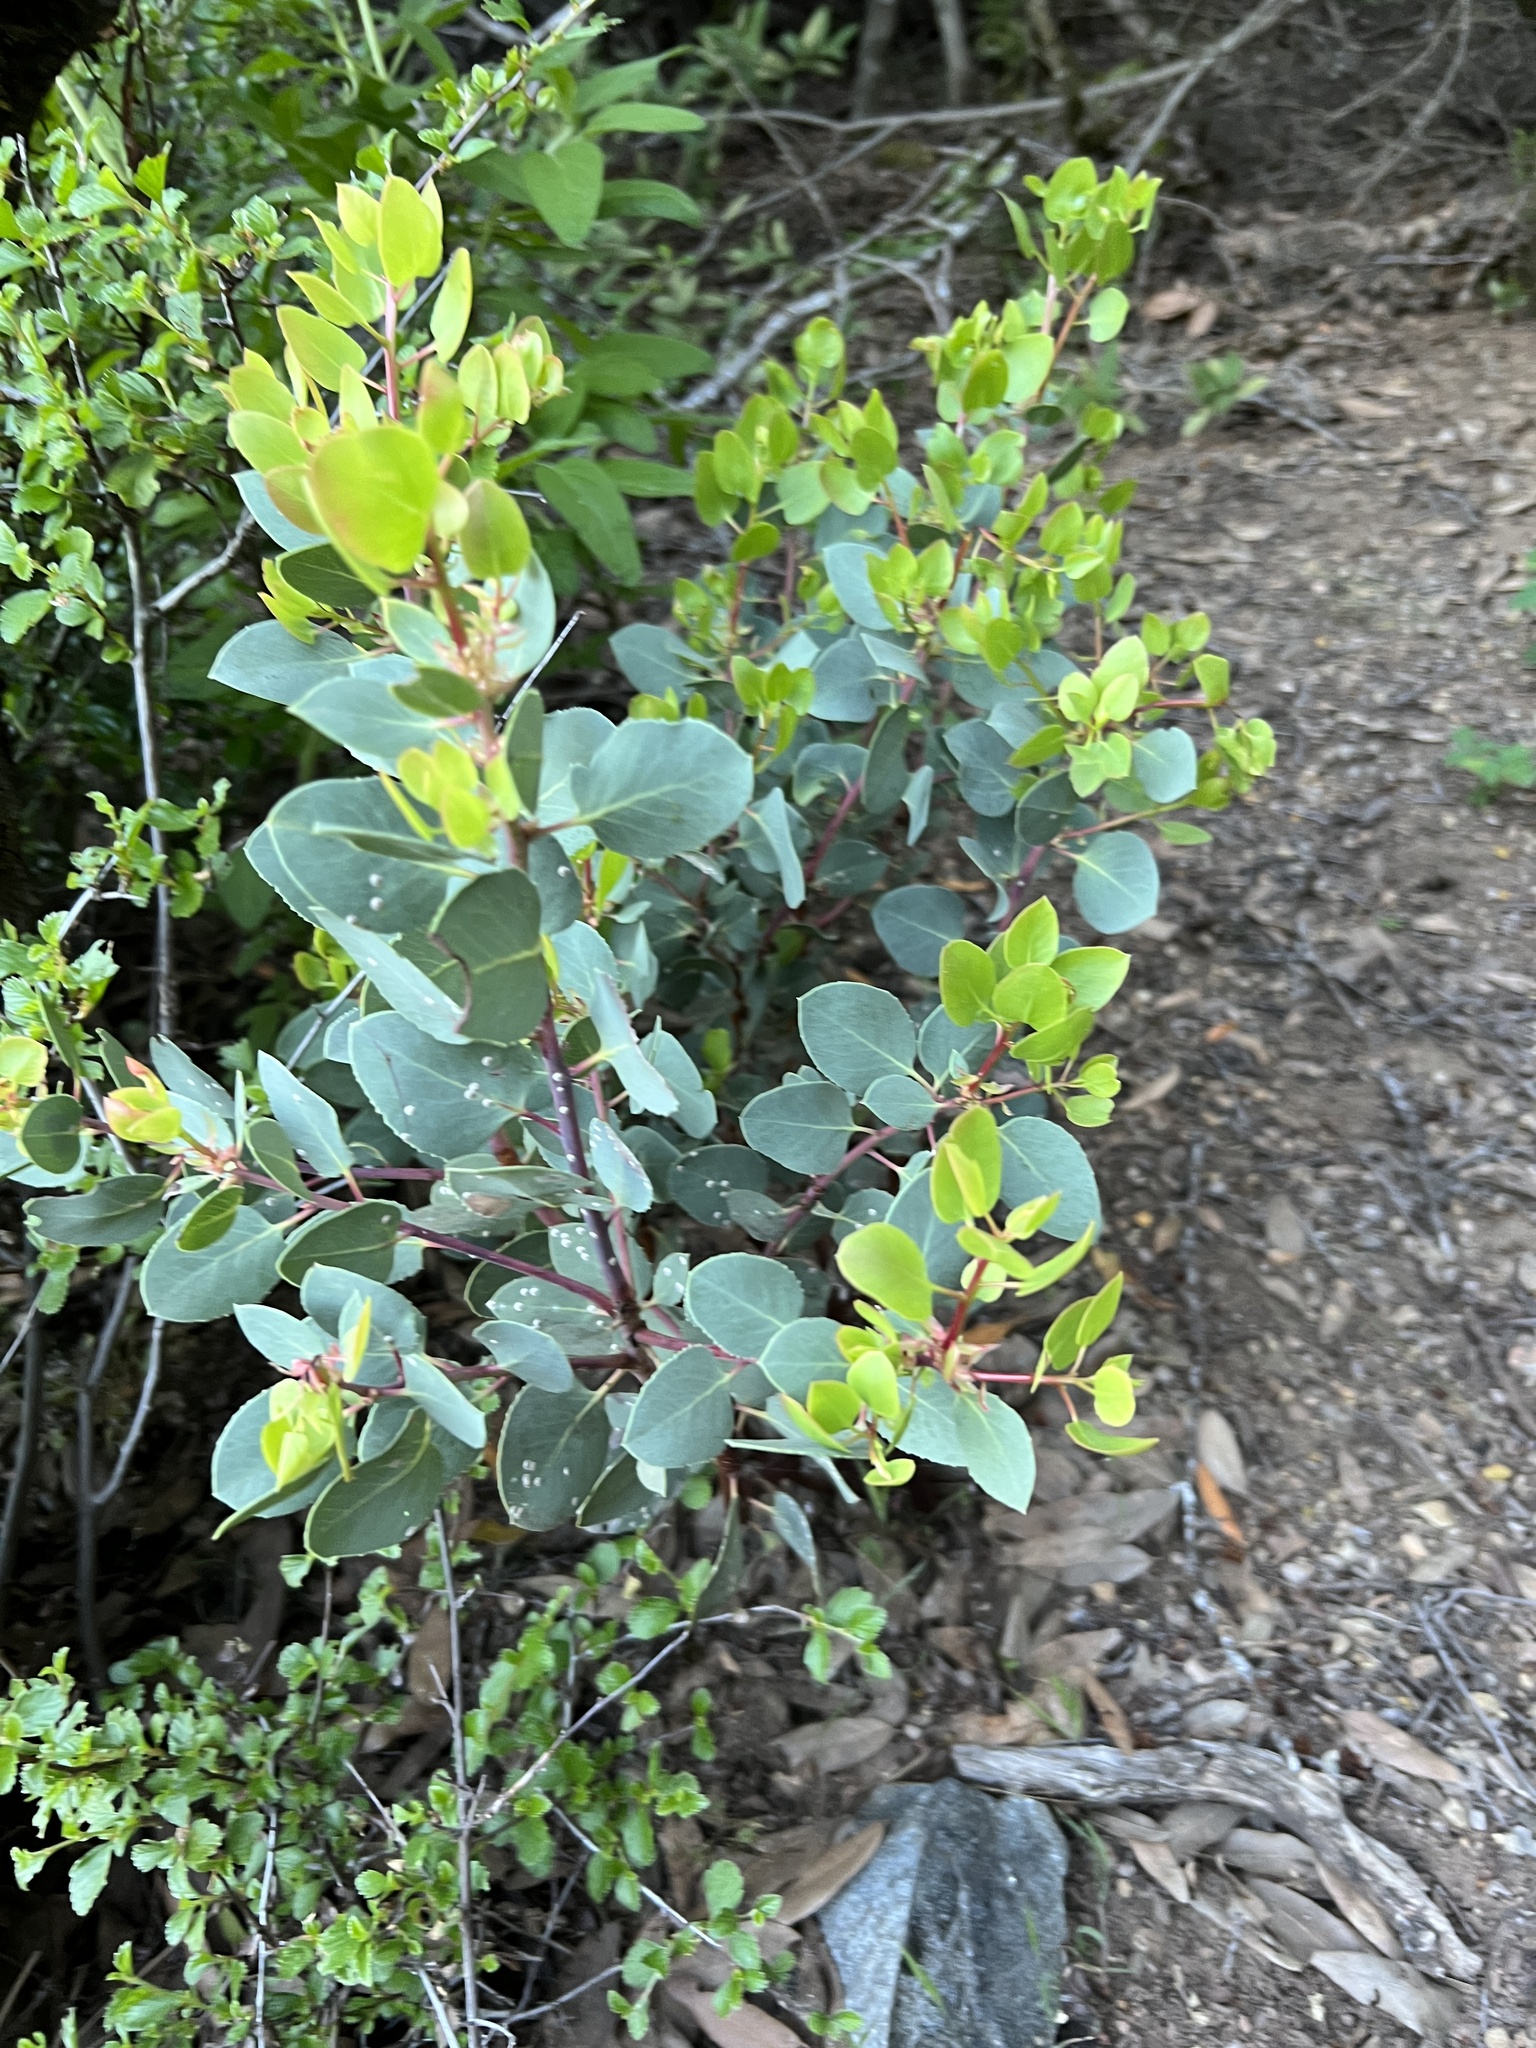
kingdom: Plantae
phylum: Tracheophyta
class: Magnoliopsida
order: Ericales
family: Ericaceae
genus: Arctostaphylos
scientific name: Arctostaphylos glauca
